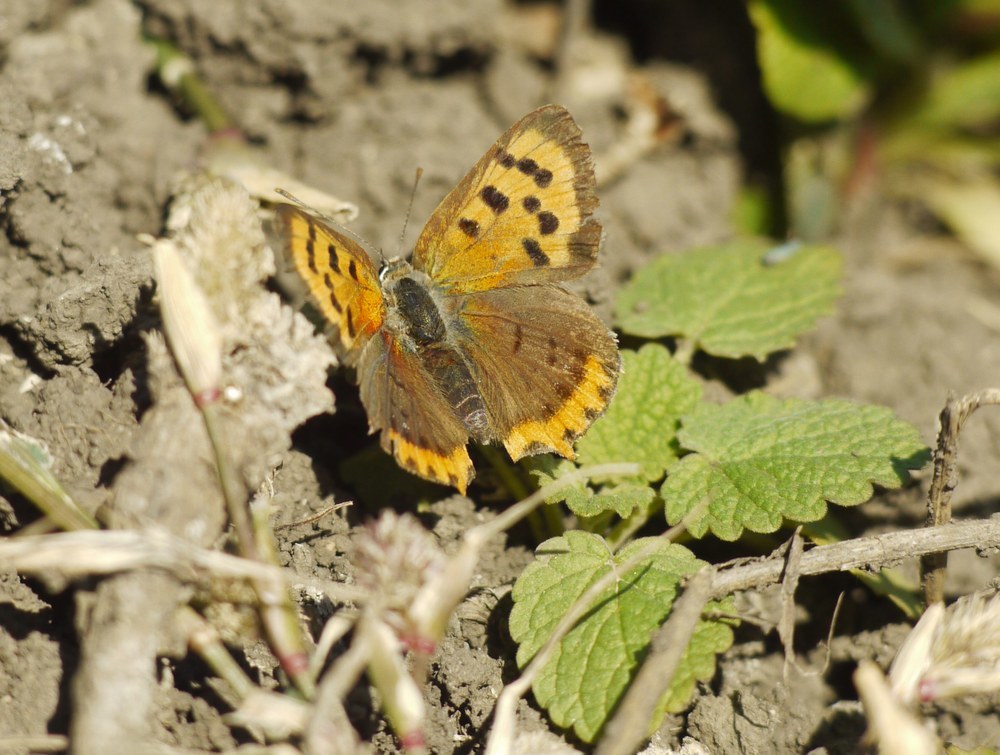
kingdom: Animalia
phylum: Arthropoda
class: Insecta
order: Lepidoptera
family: Lycaenidae
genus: Lycaena
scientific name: Lycaena phlaeas
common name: Small copper
